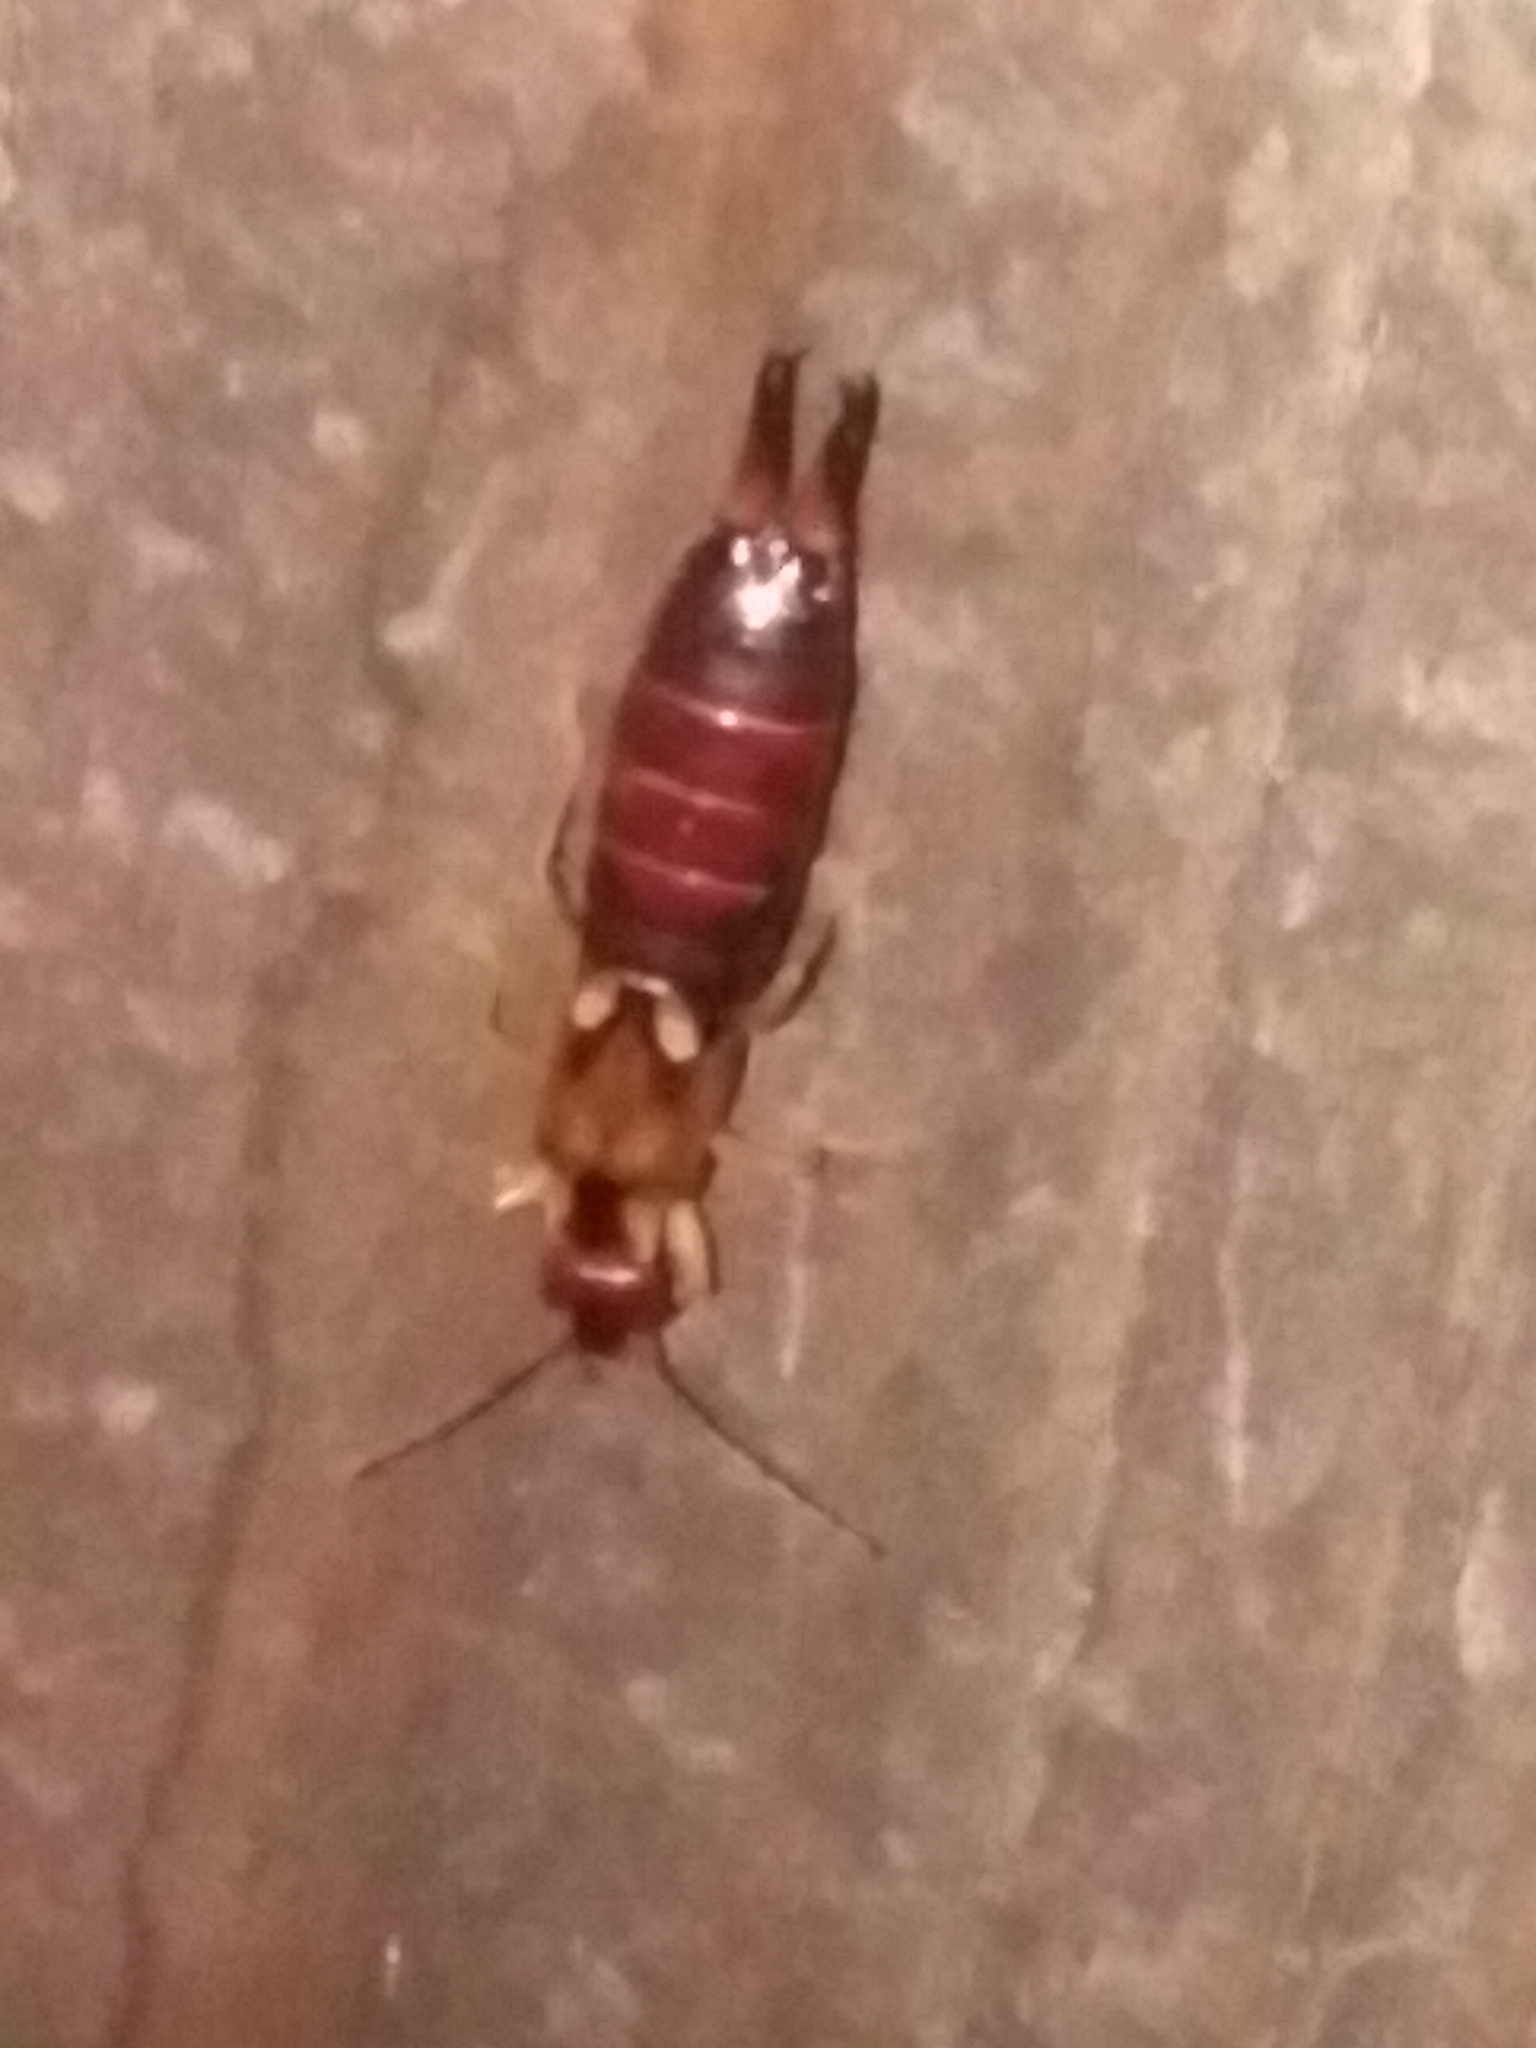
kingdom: Animalia
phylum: Arthropoda
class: Insecta
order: Dermaptera
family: Forficulidae
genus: Forficula
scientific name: Forficula
